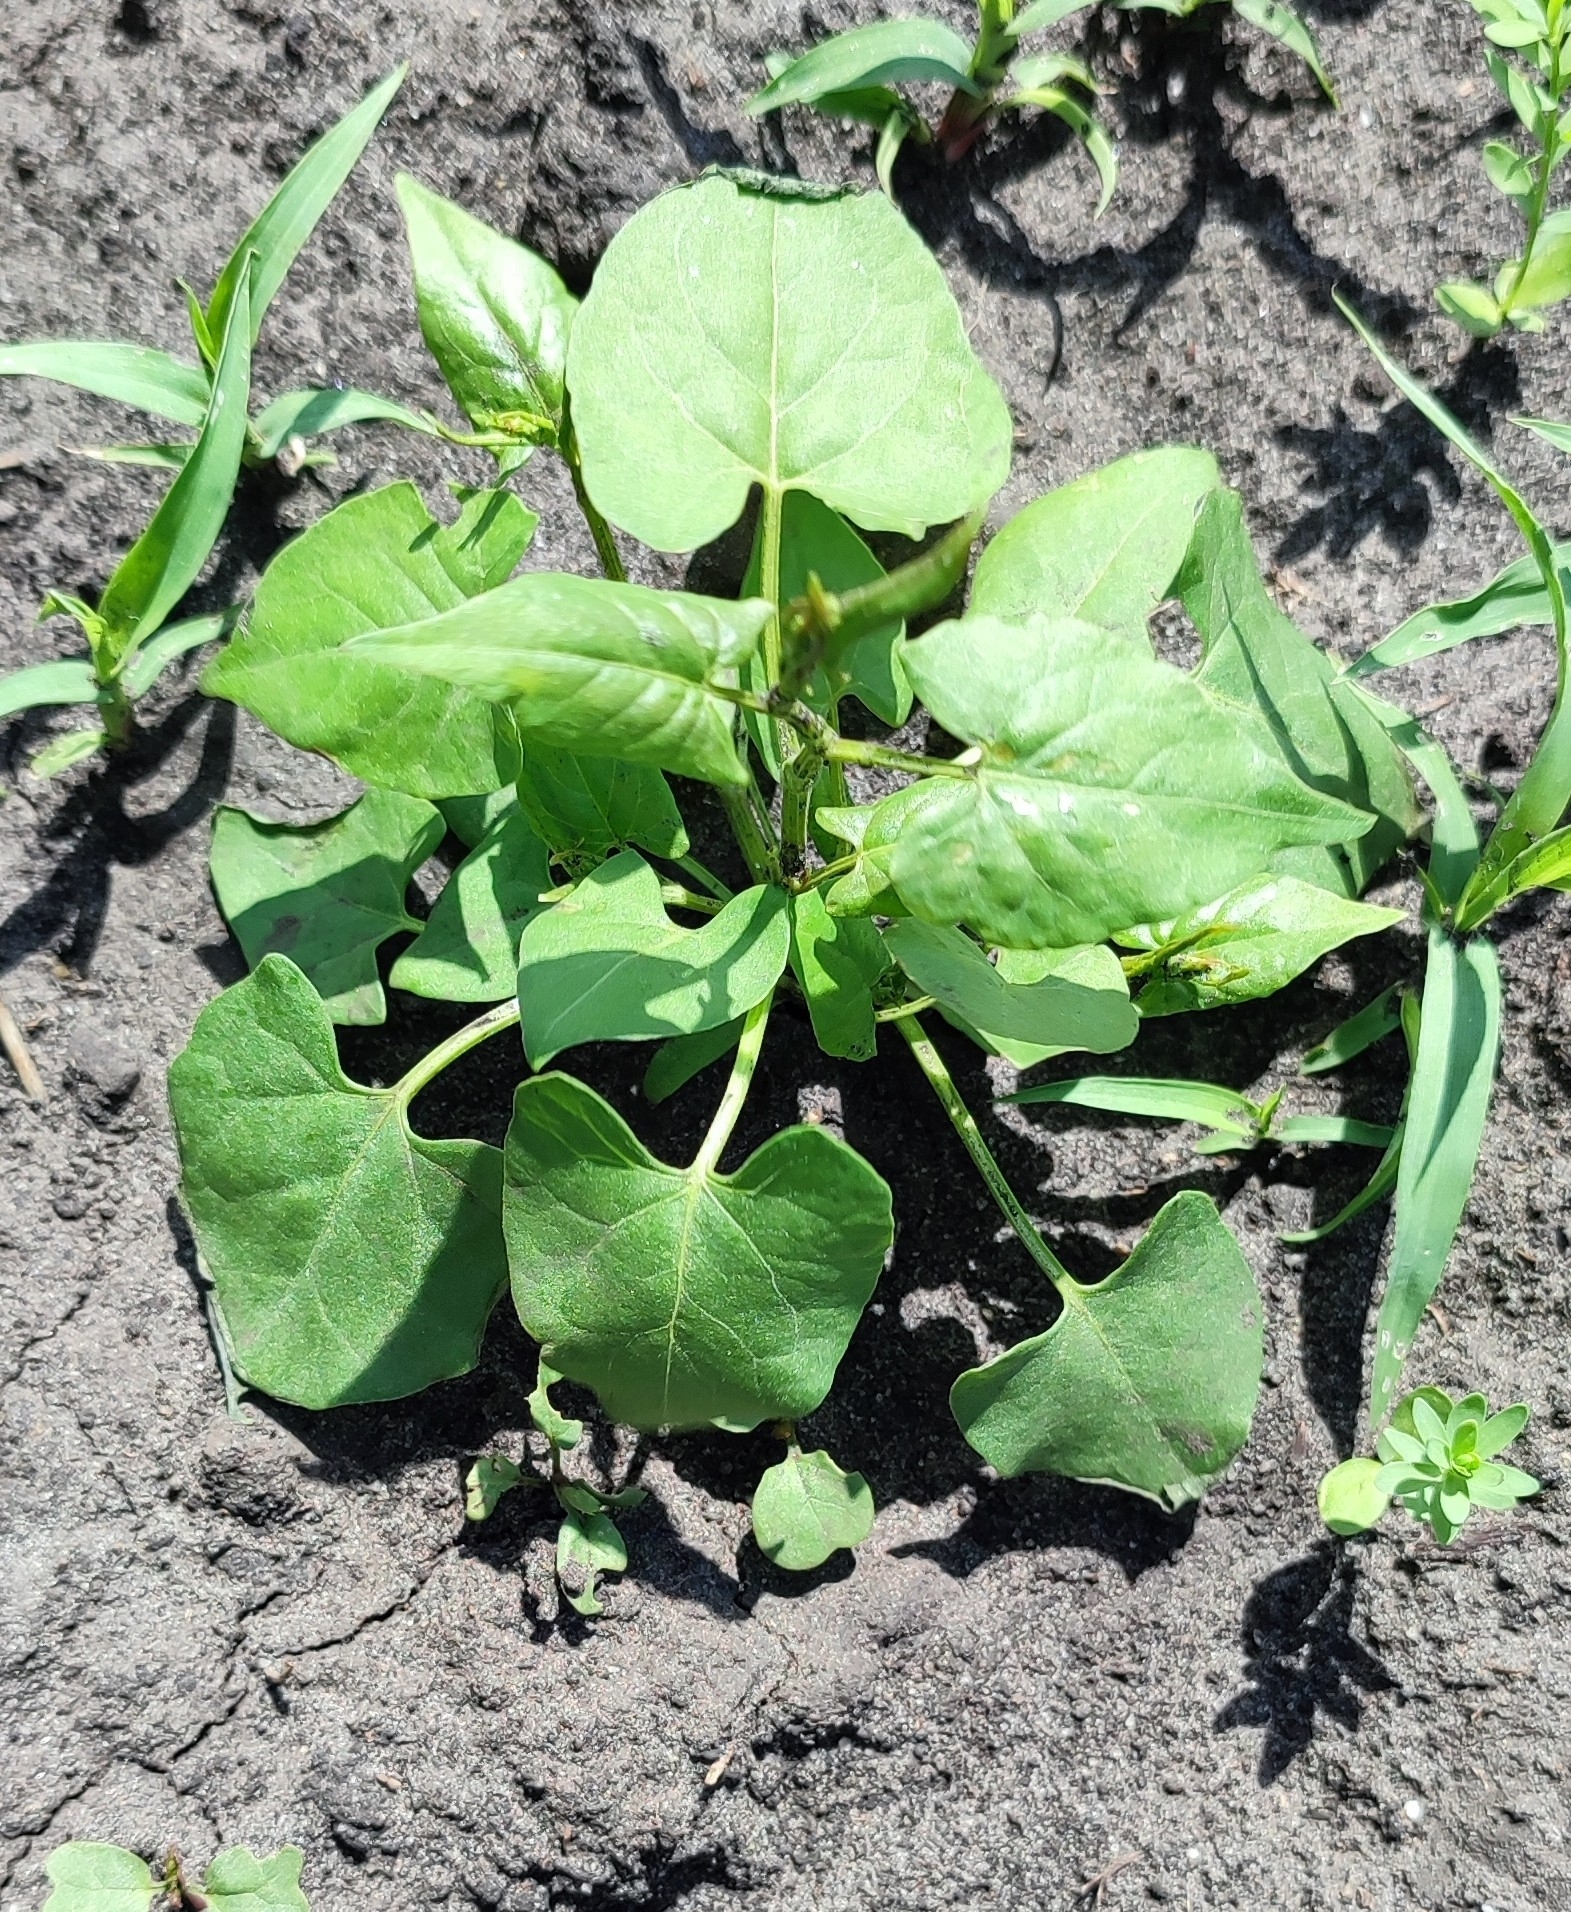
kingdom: Plantae
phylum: Tracheophyta
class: Magnoliopsida
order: Caryophyllales
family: Polygonaceae
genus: Fallopia
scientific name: Fallopia convolvulus
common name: Black bindweed
